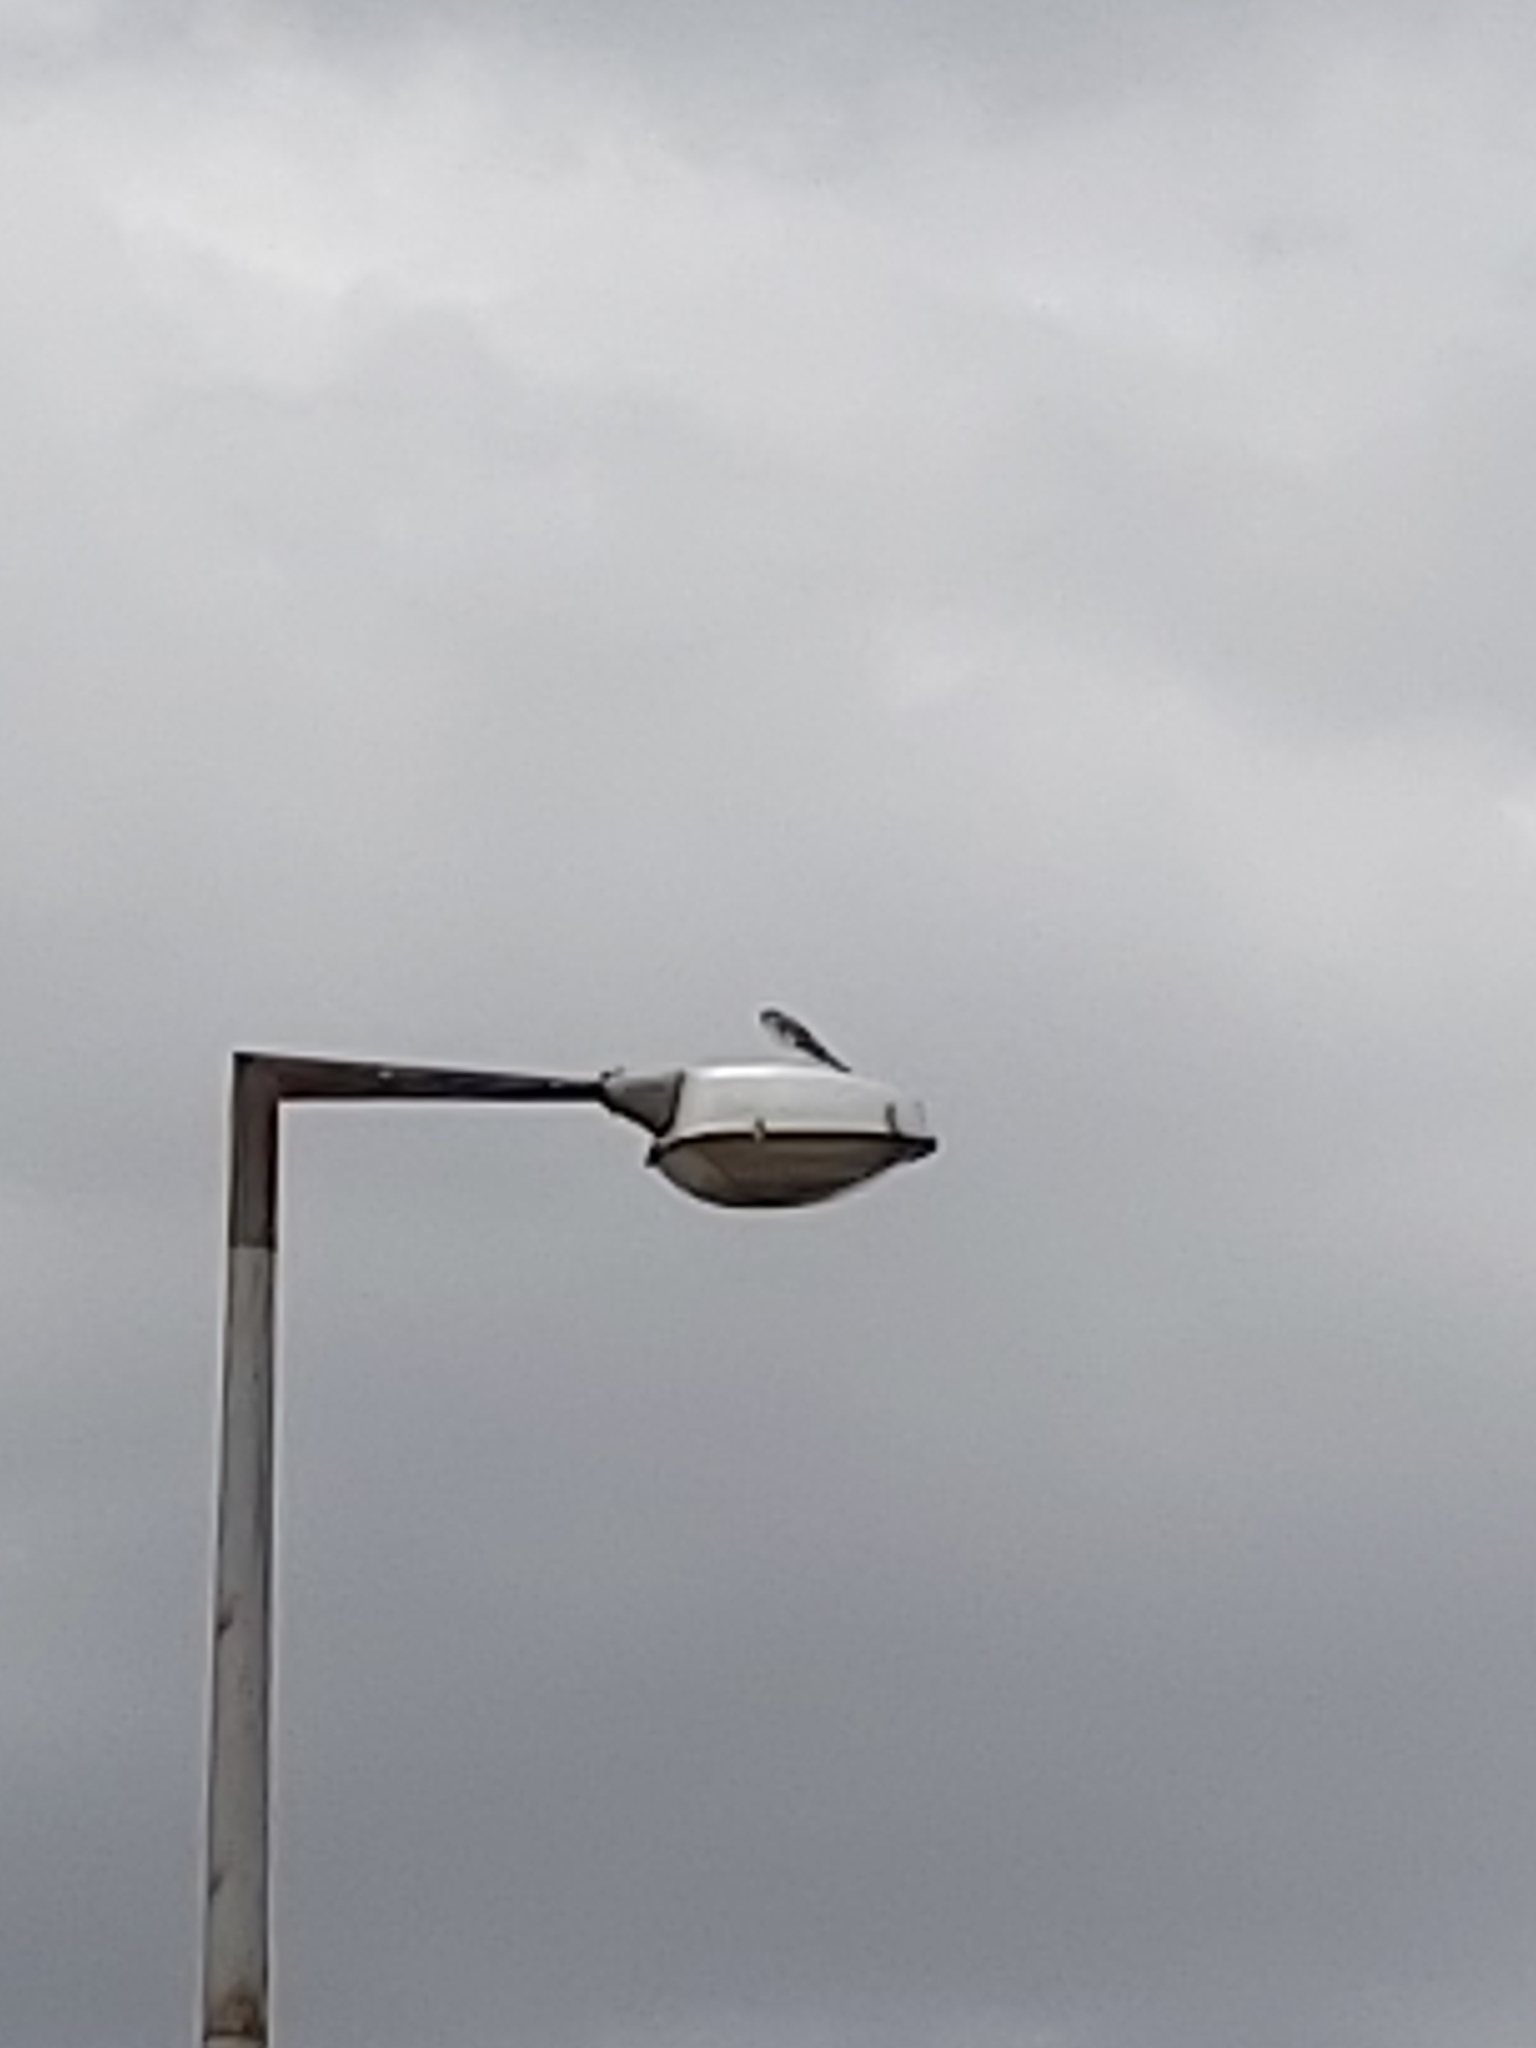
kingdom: Animalia
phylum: Chordata
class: Aves
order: Falconiformes
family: Falconidae
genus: Falco
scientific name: Falco cenchroides
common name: Nankeen kestrel
